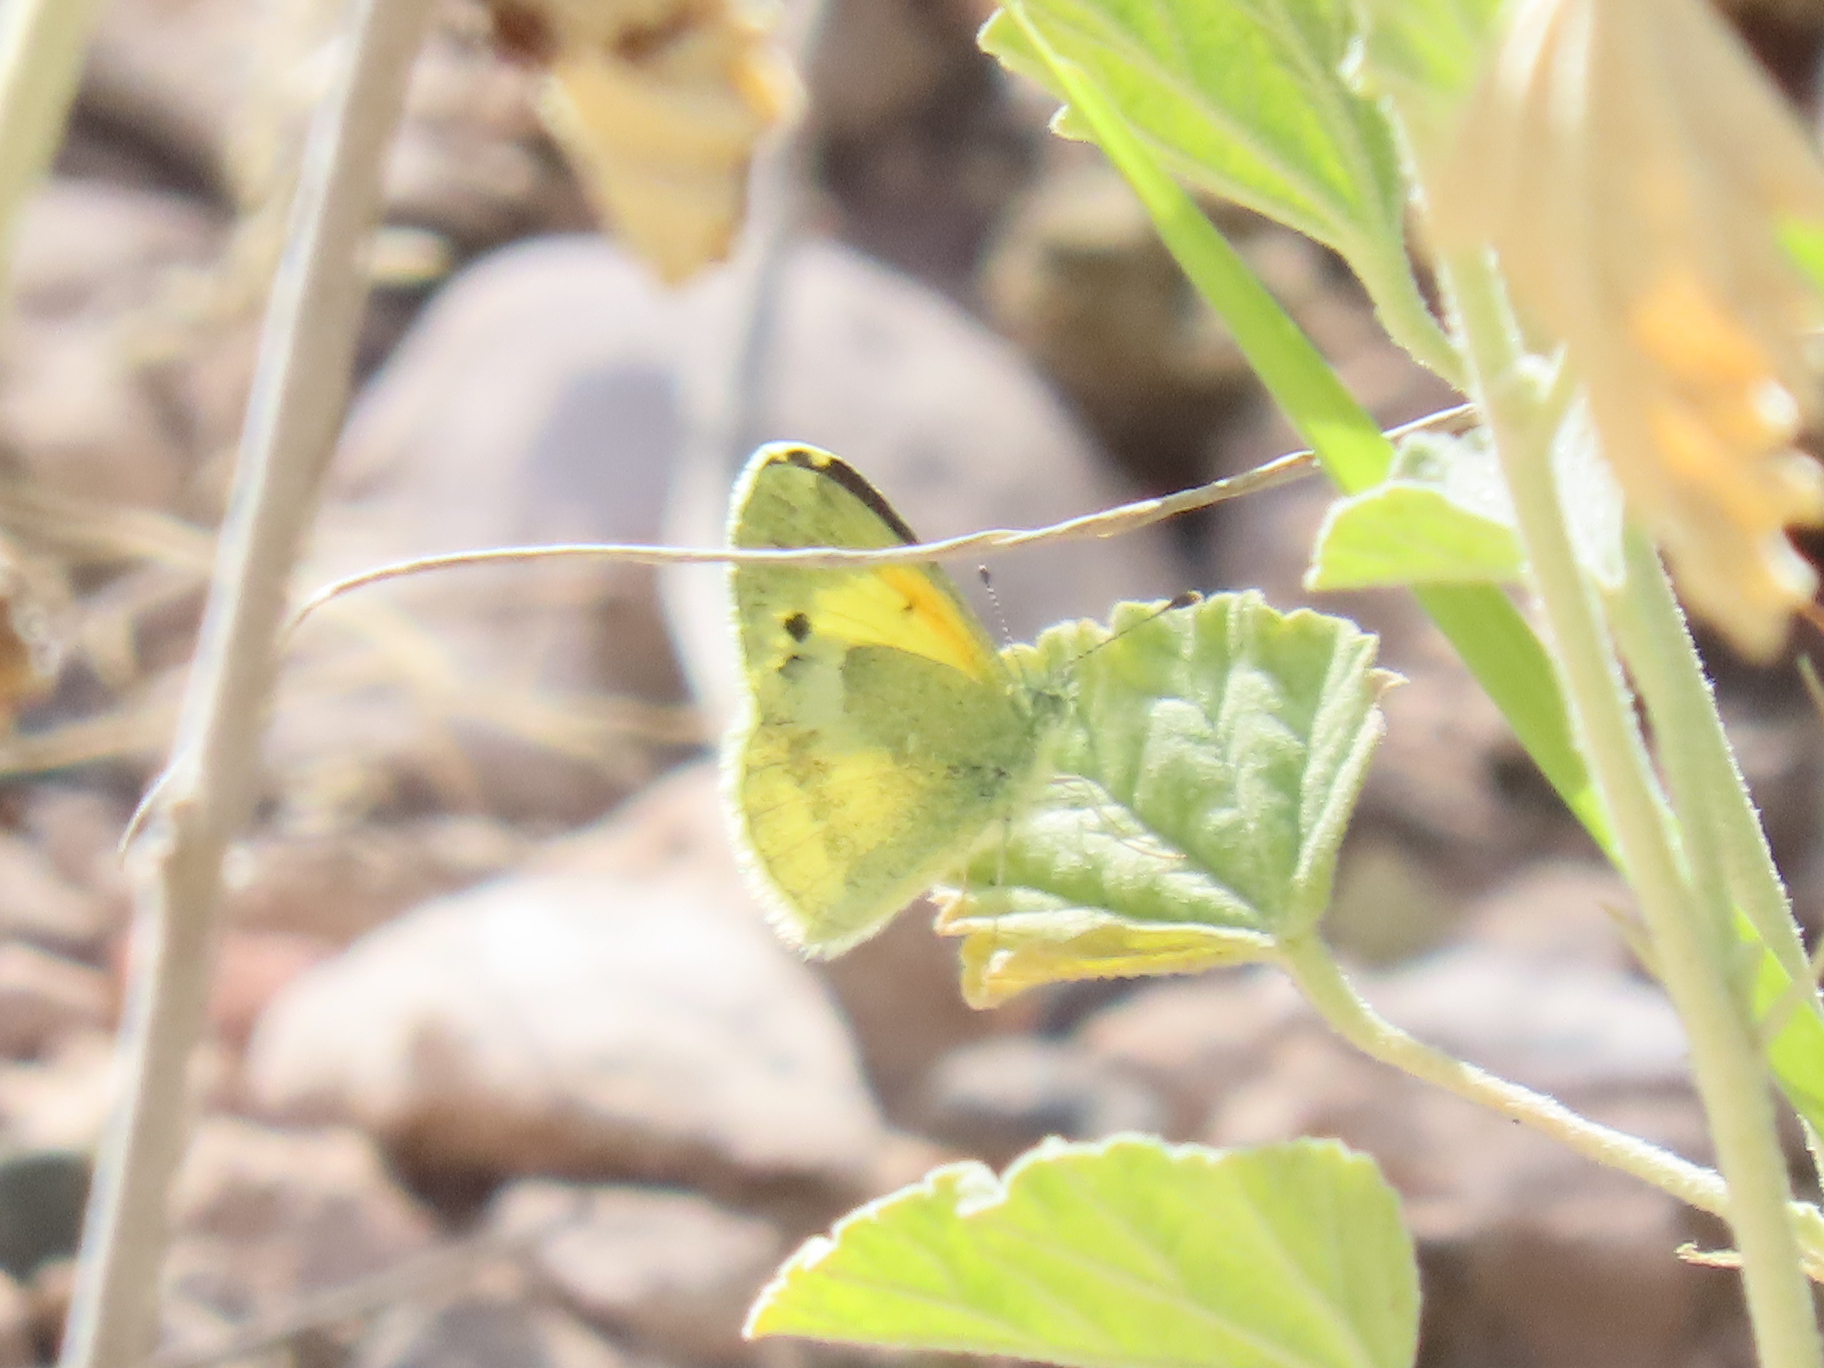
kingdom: Animalia
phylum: Arthropoda
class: Insecta
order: Lepidoptera
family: Pieridae
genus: Nathalis
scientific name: Nathalis iole
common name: Dainty sulphur
